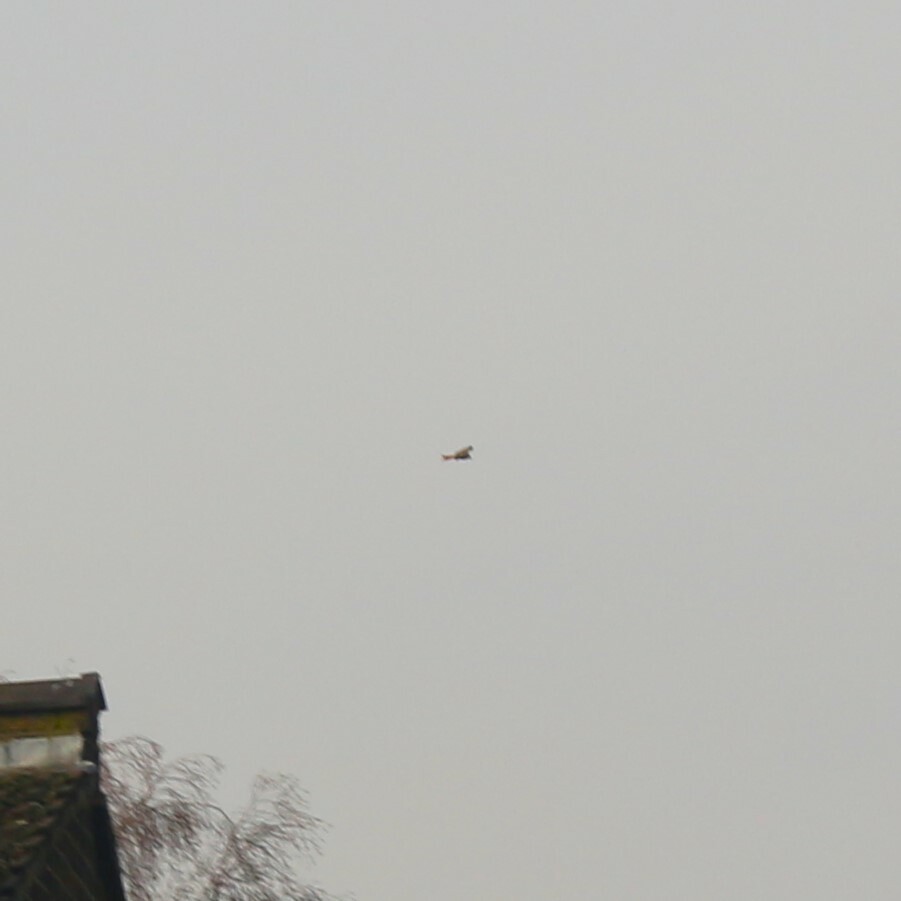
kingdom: Animalia
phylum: Chordata
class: Aves
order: Accipitriformes
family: Accipitridae
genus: Milvus
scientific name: Milvus milvus
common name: Red kite
